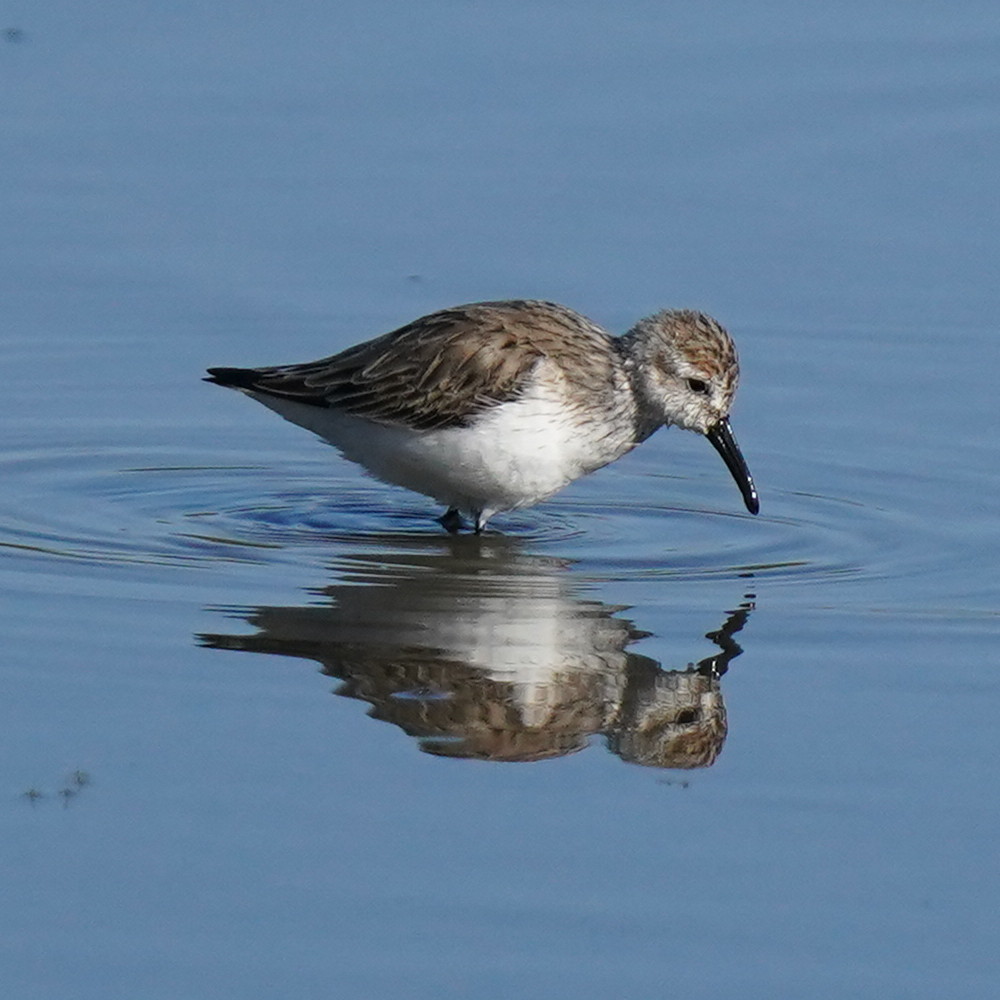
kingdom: Animalia
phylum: Chordata
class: Aves
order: Charadriiformes
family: Scolopacidae
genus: Calidris
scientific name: Calidris mauri
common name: Western sandpiper
